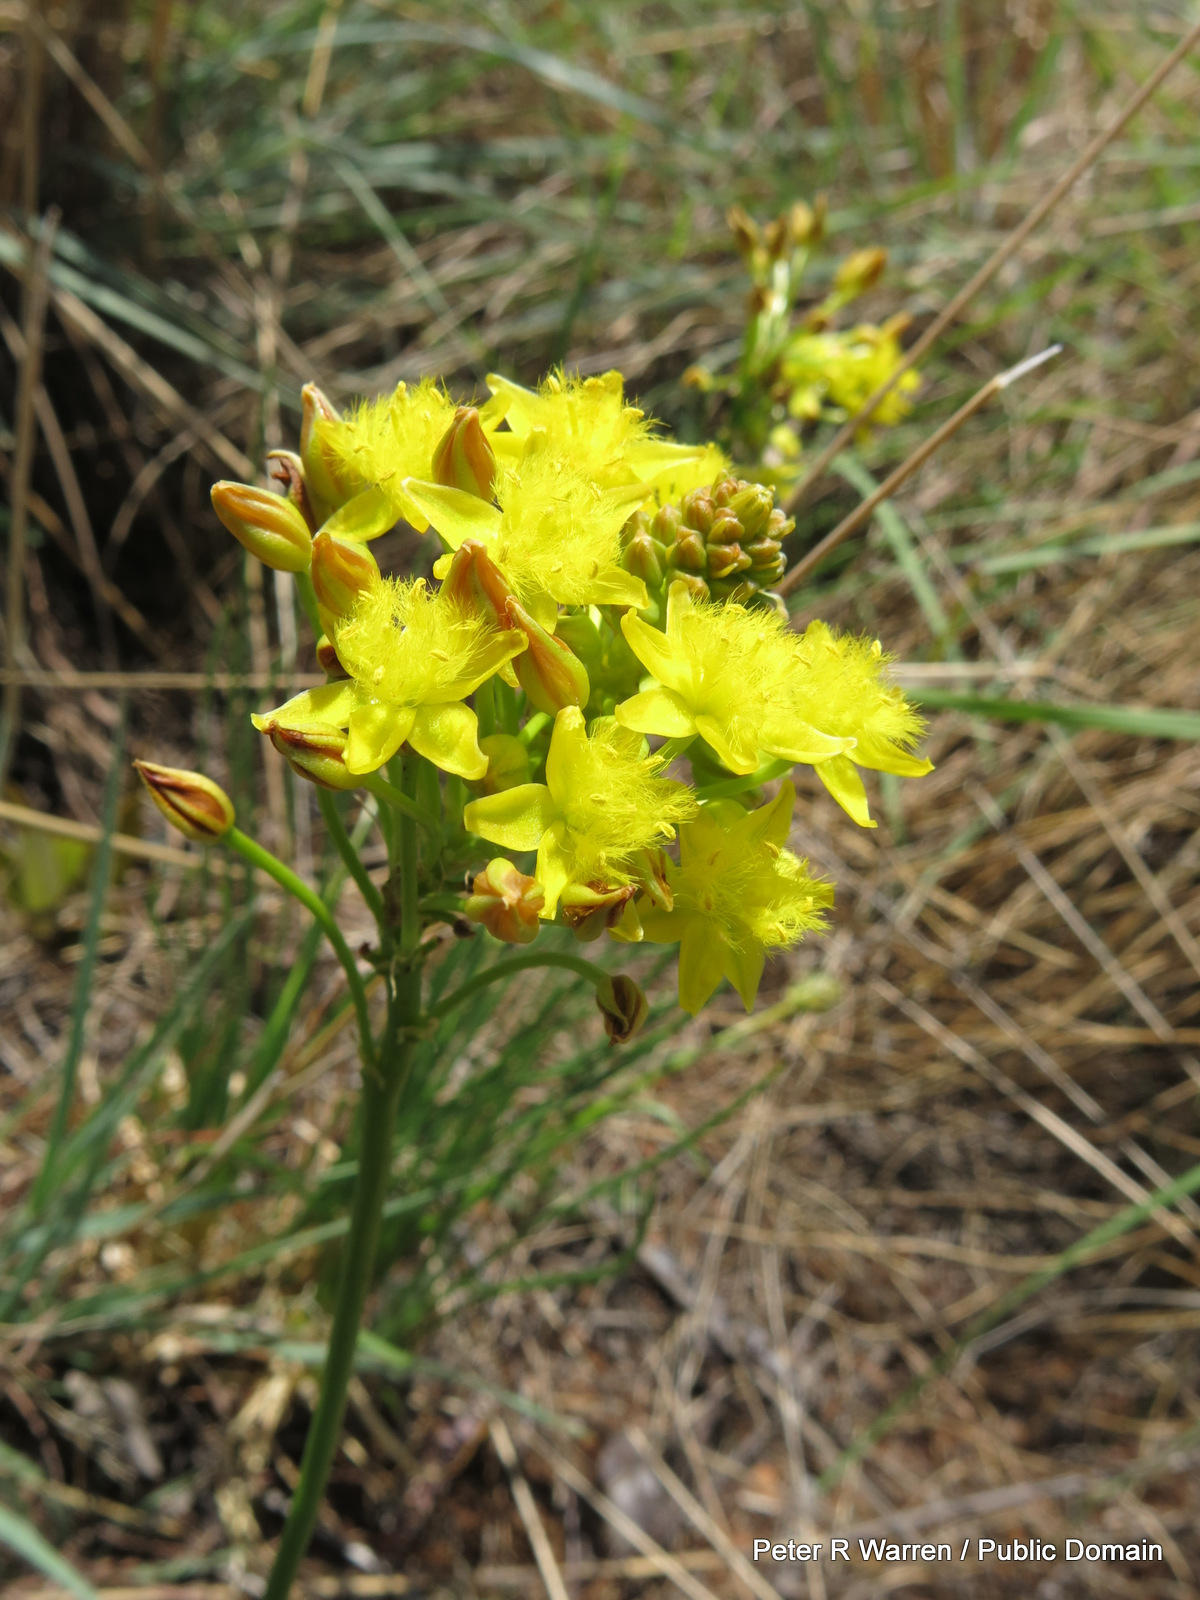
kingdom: Plantae
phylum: Tracheophyta
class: Liliopsida
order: Asparagales
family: Asphodelaceae
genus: Bulbine
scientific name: Bulbine capitata
